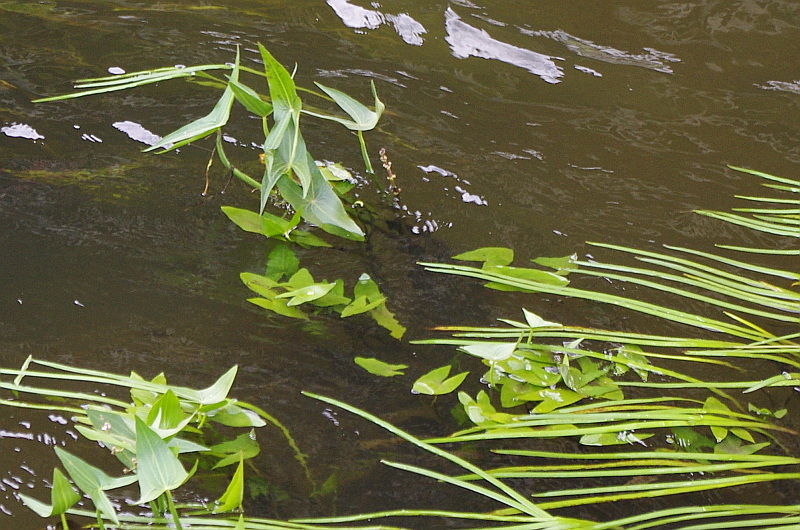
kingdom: Plantae
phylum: Tracheophyta
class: Liliopsida
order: Alismatales
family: Alismataceae
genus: Sagittaria
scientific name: Sagittaria sagittifolia
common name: Arrowhead
